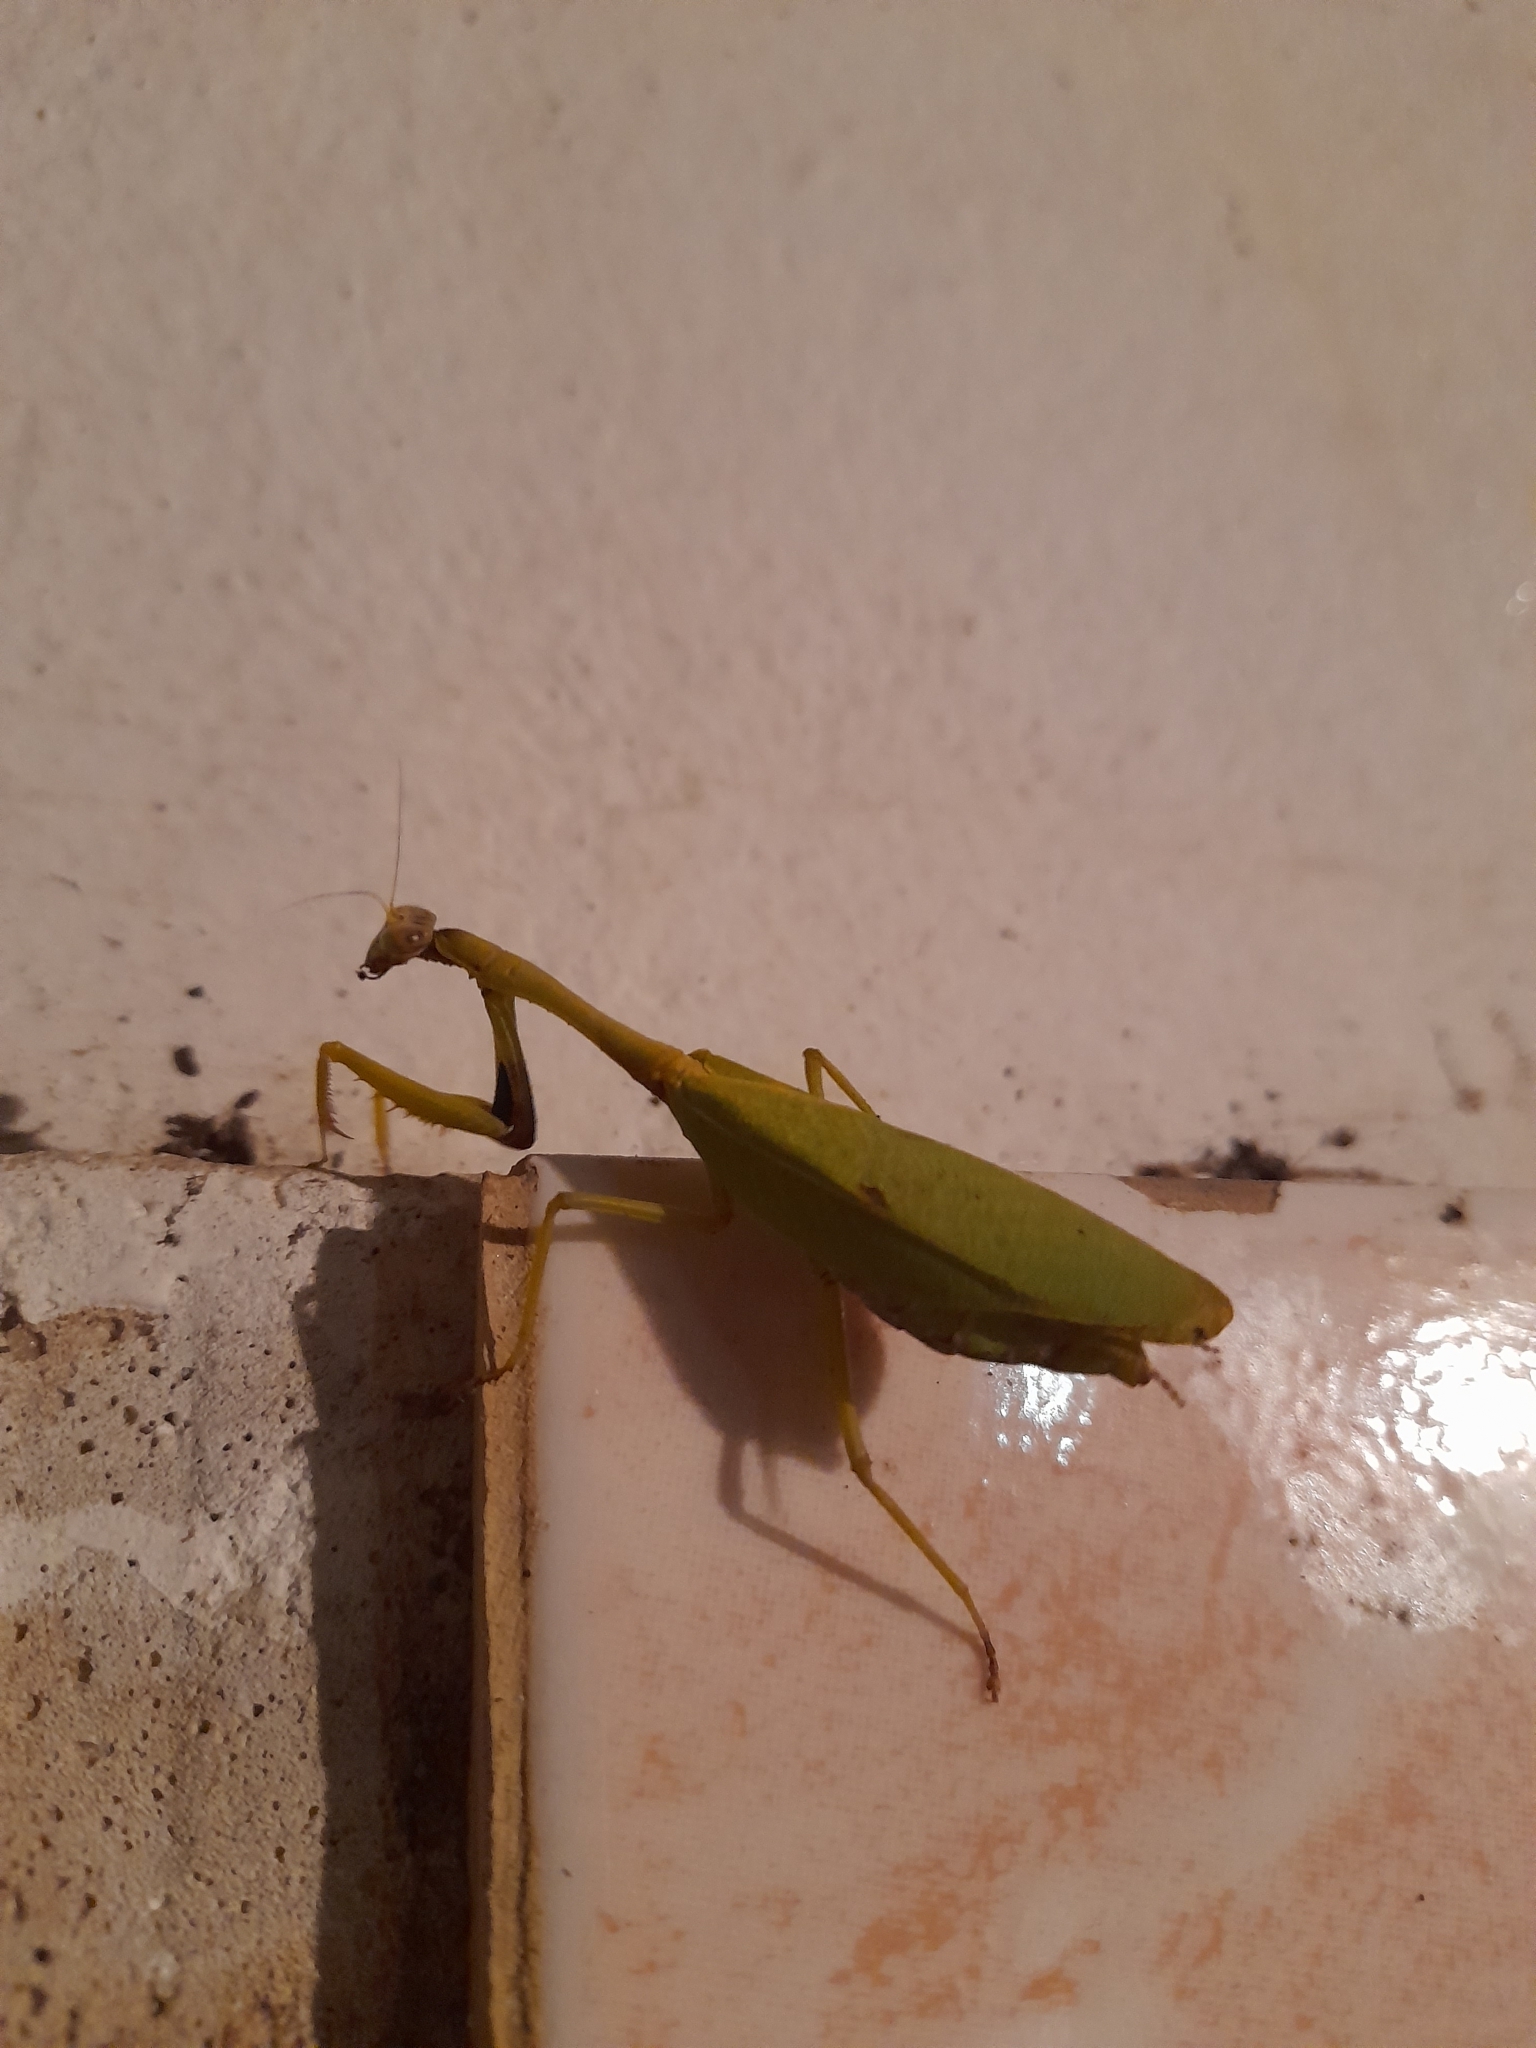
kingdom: Animalia
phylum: Arthropoda
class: Insecta
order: Mantodea
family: Mantidae
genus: Parastagmatoptera
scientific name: Parastagmatoptera theresopolitana
